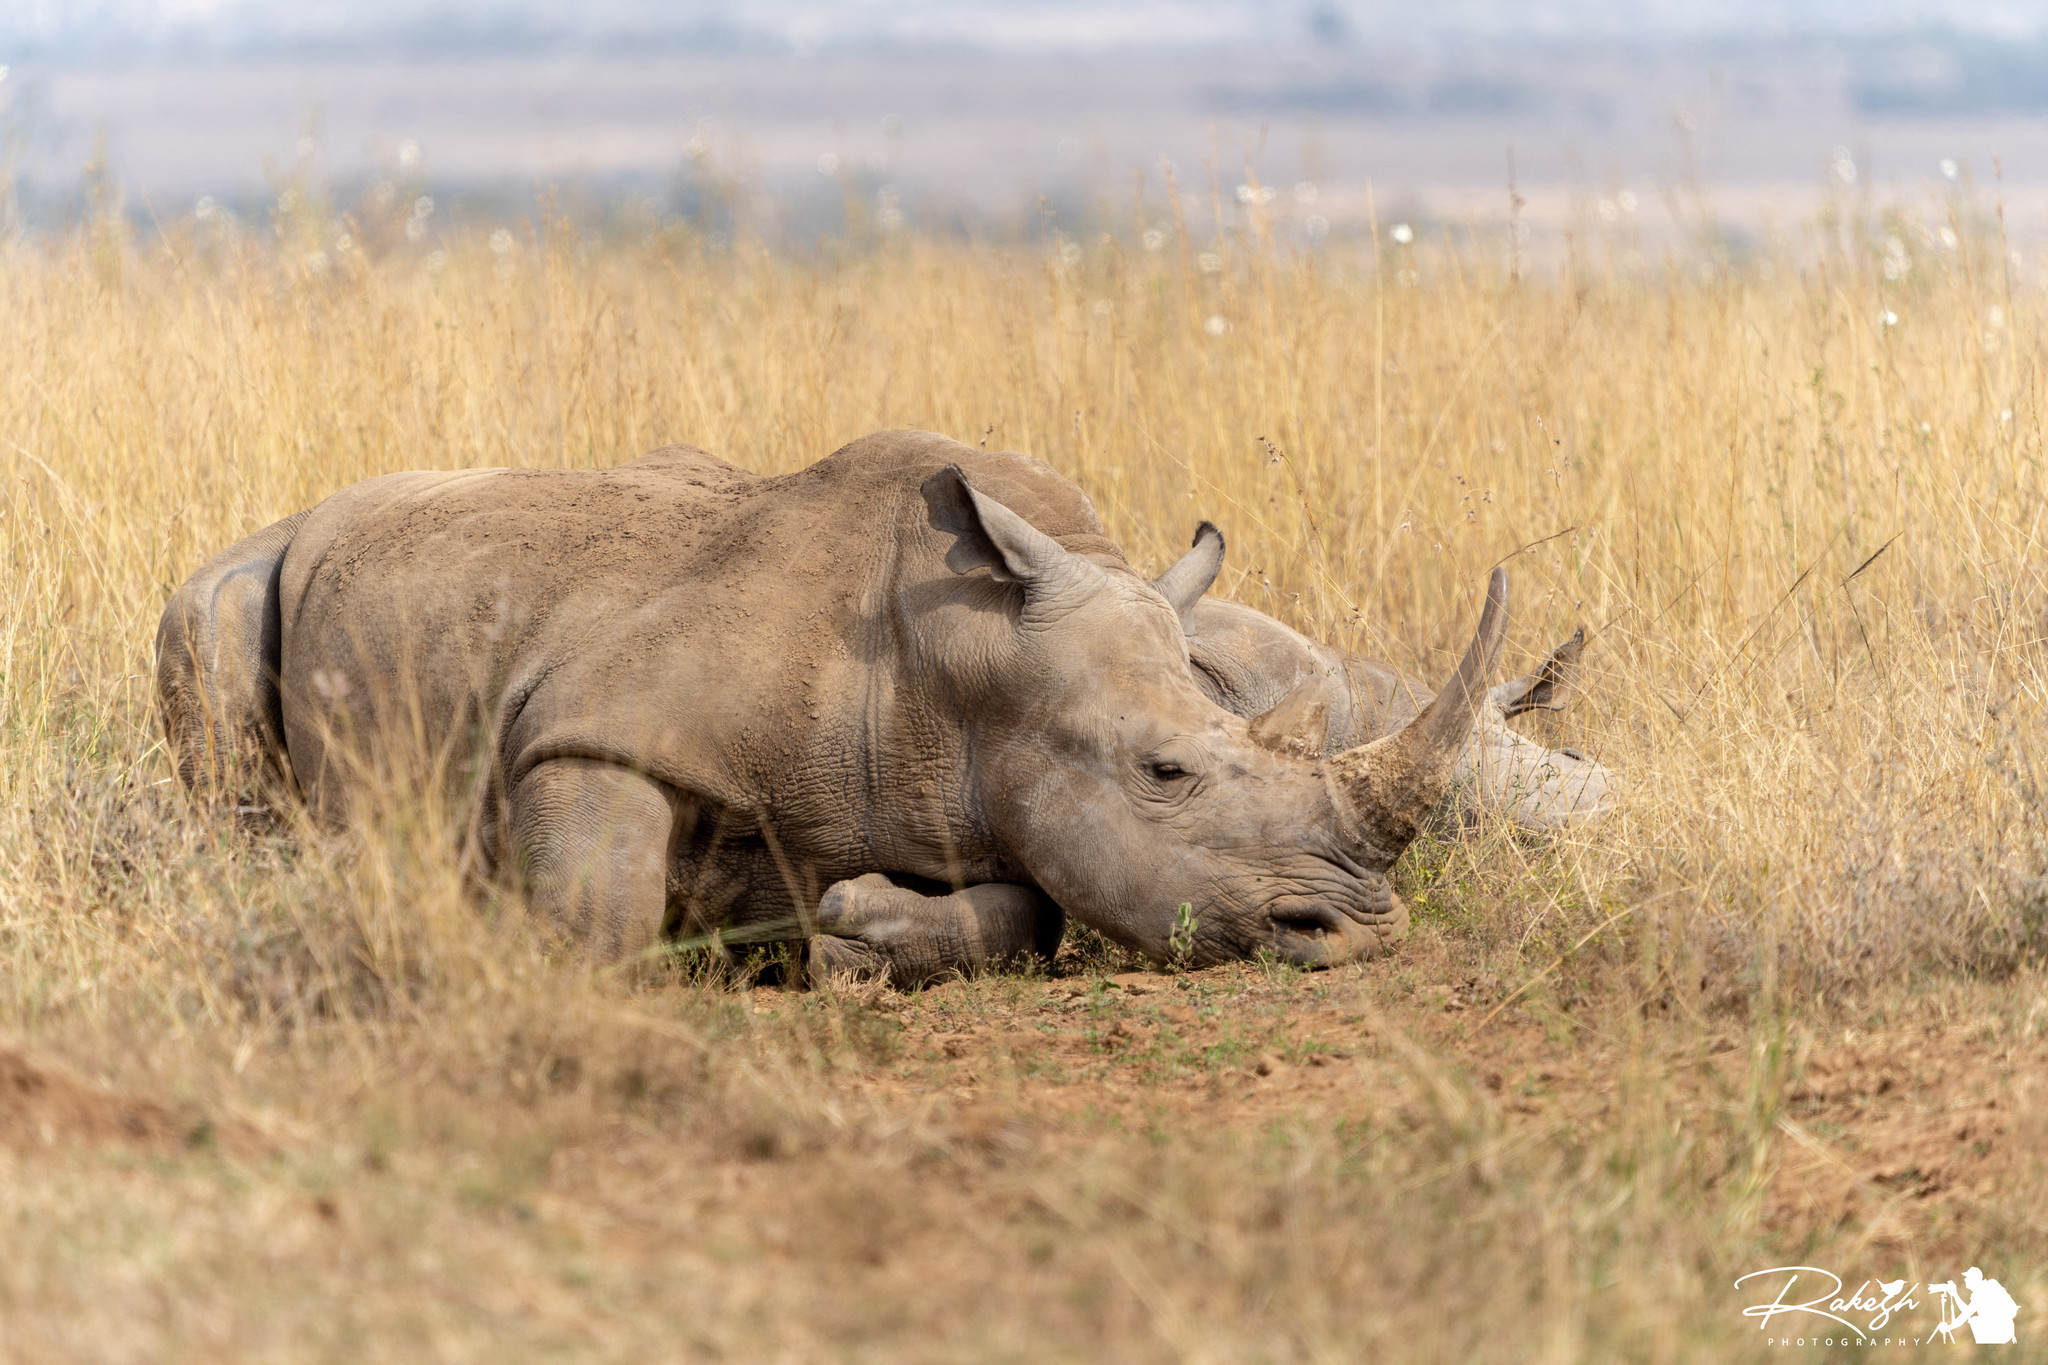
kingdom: Animalia
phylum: Chordata
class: Mammalia
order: Perissodactyla
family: Rhinocerotidae
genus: Ceratotherium
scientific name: Ceratotherium simum
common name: White rhinoceros
